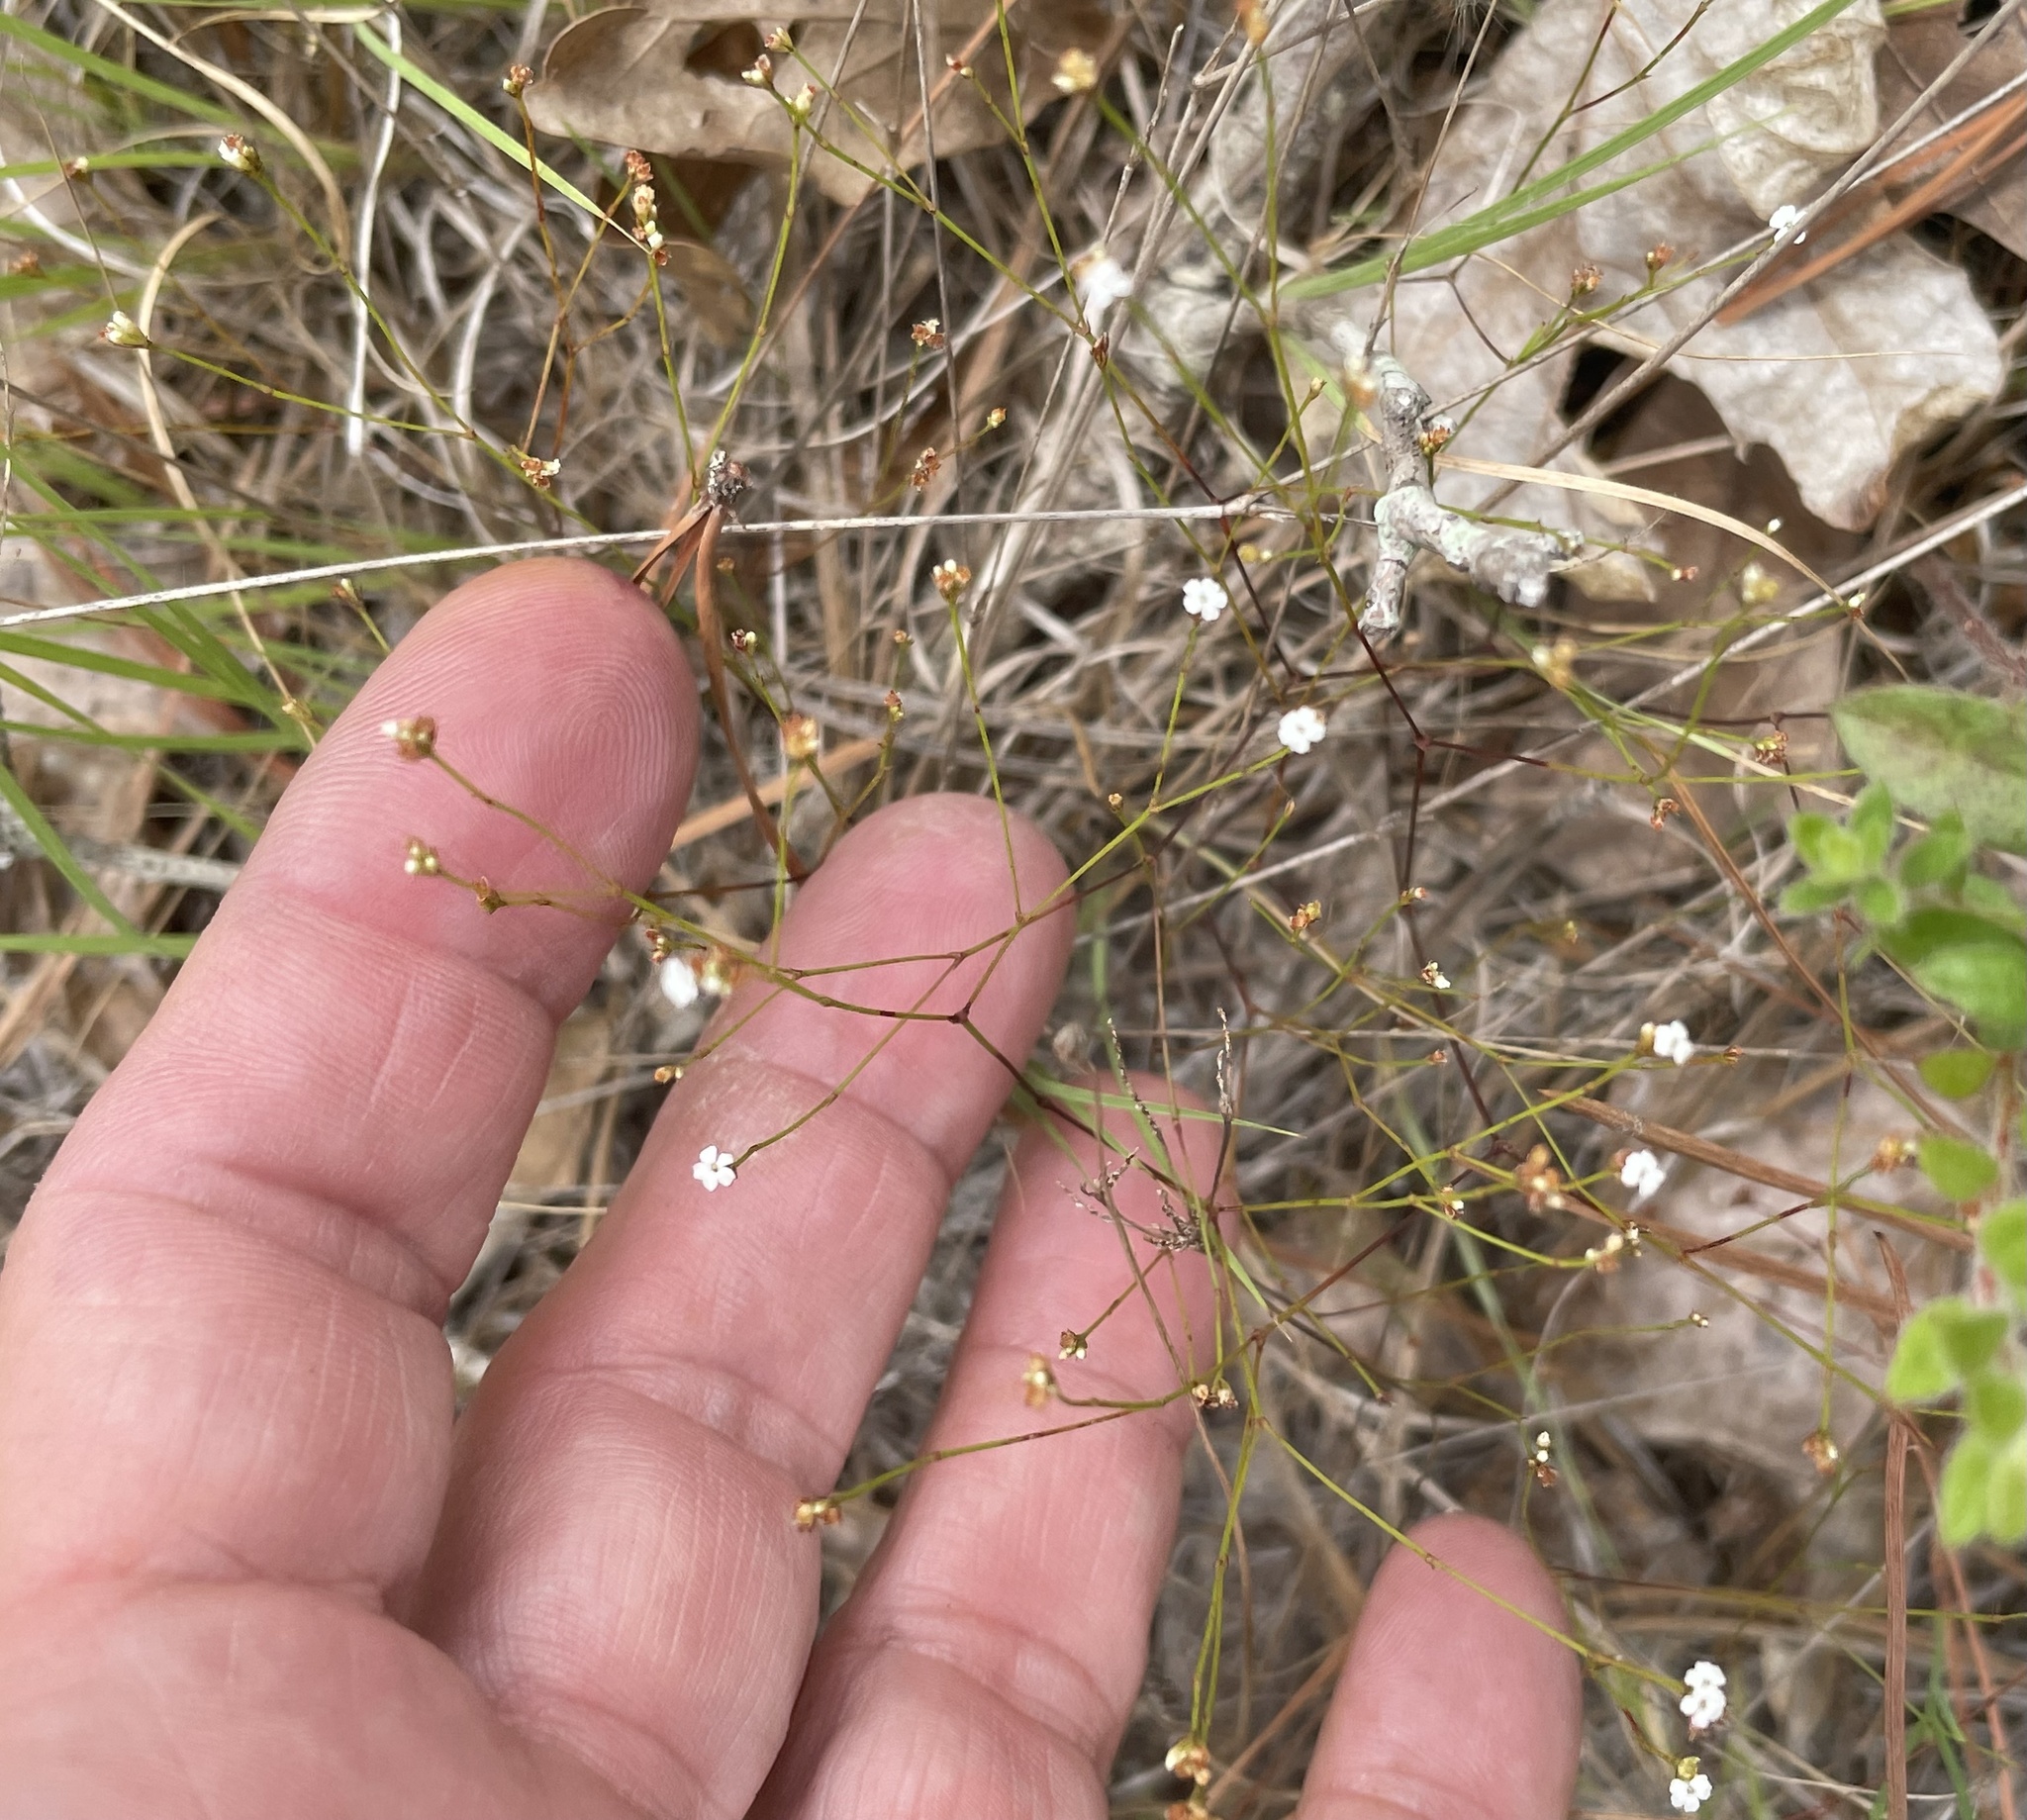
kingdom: Plantae
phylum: Tracheophyta
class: Magnoliopsida
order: Caryophyllales
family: Caryophyllaceae
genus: Stipulicida
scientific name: Stipulicida setacea
